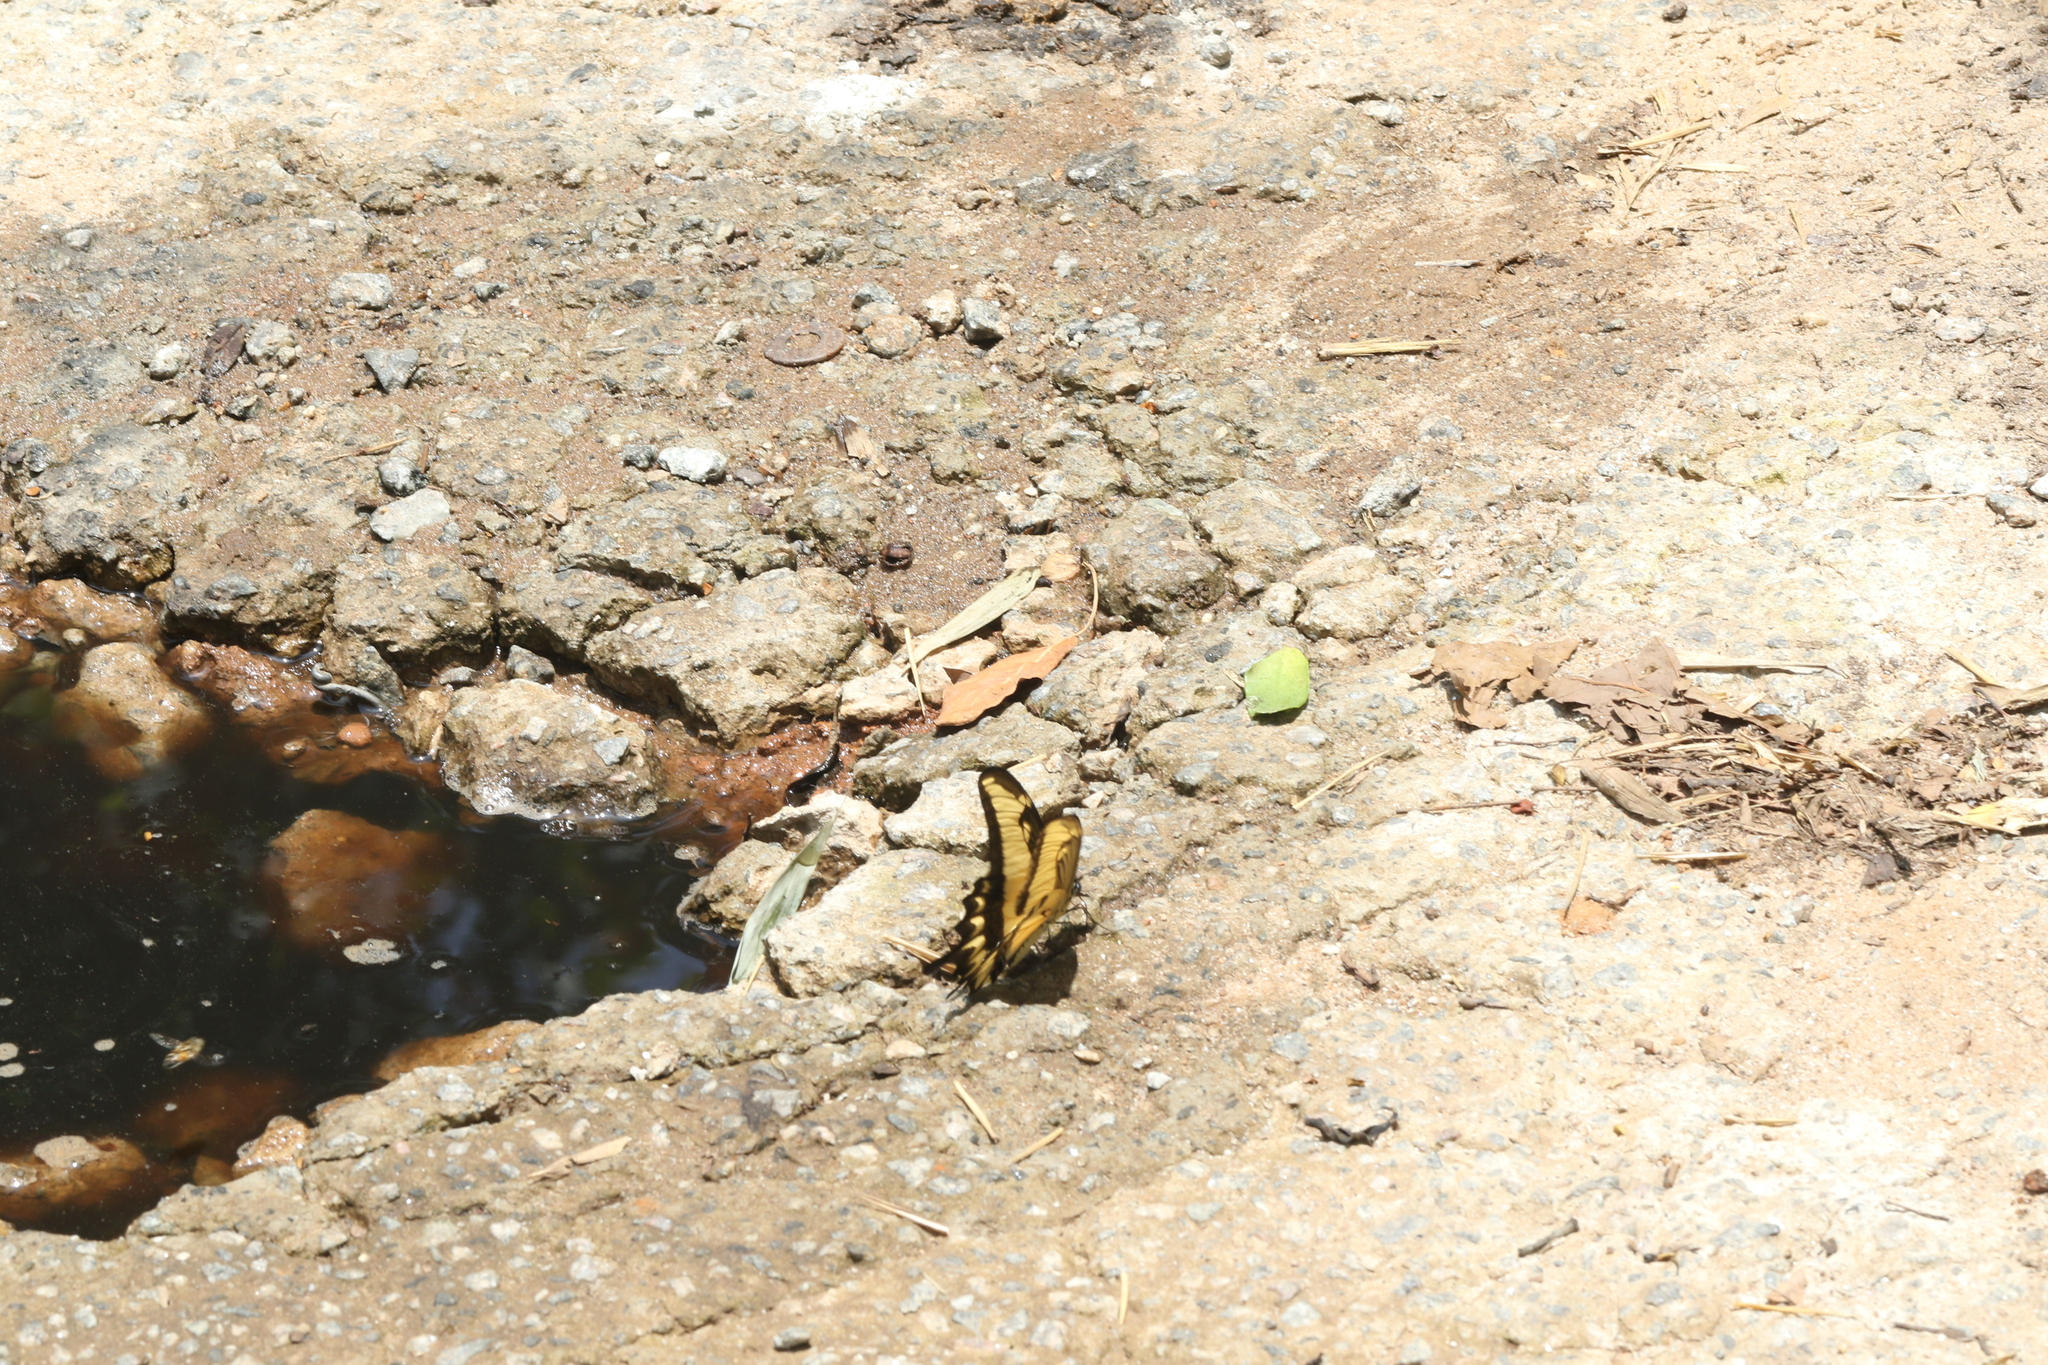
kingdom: Animalia
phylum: Arthropoda
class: Insecta
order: Lepidoptera
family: Papilionidae
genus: Papilio
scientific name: Papilio astyalus
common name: Astyalus swallowtail
